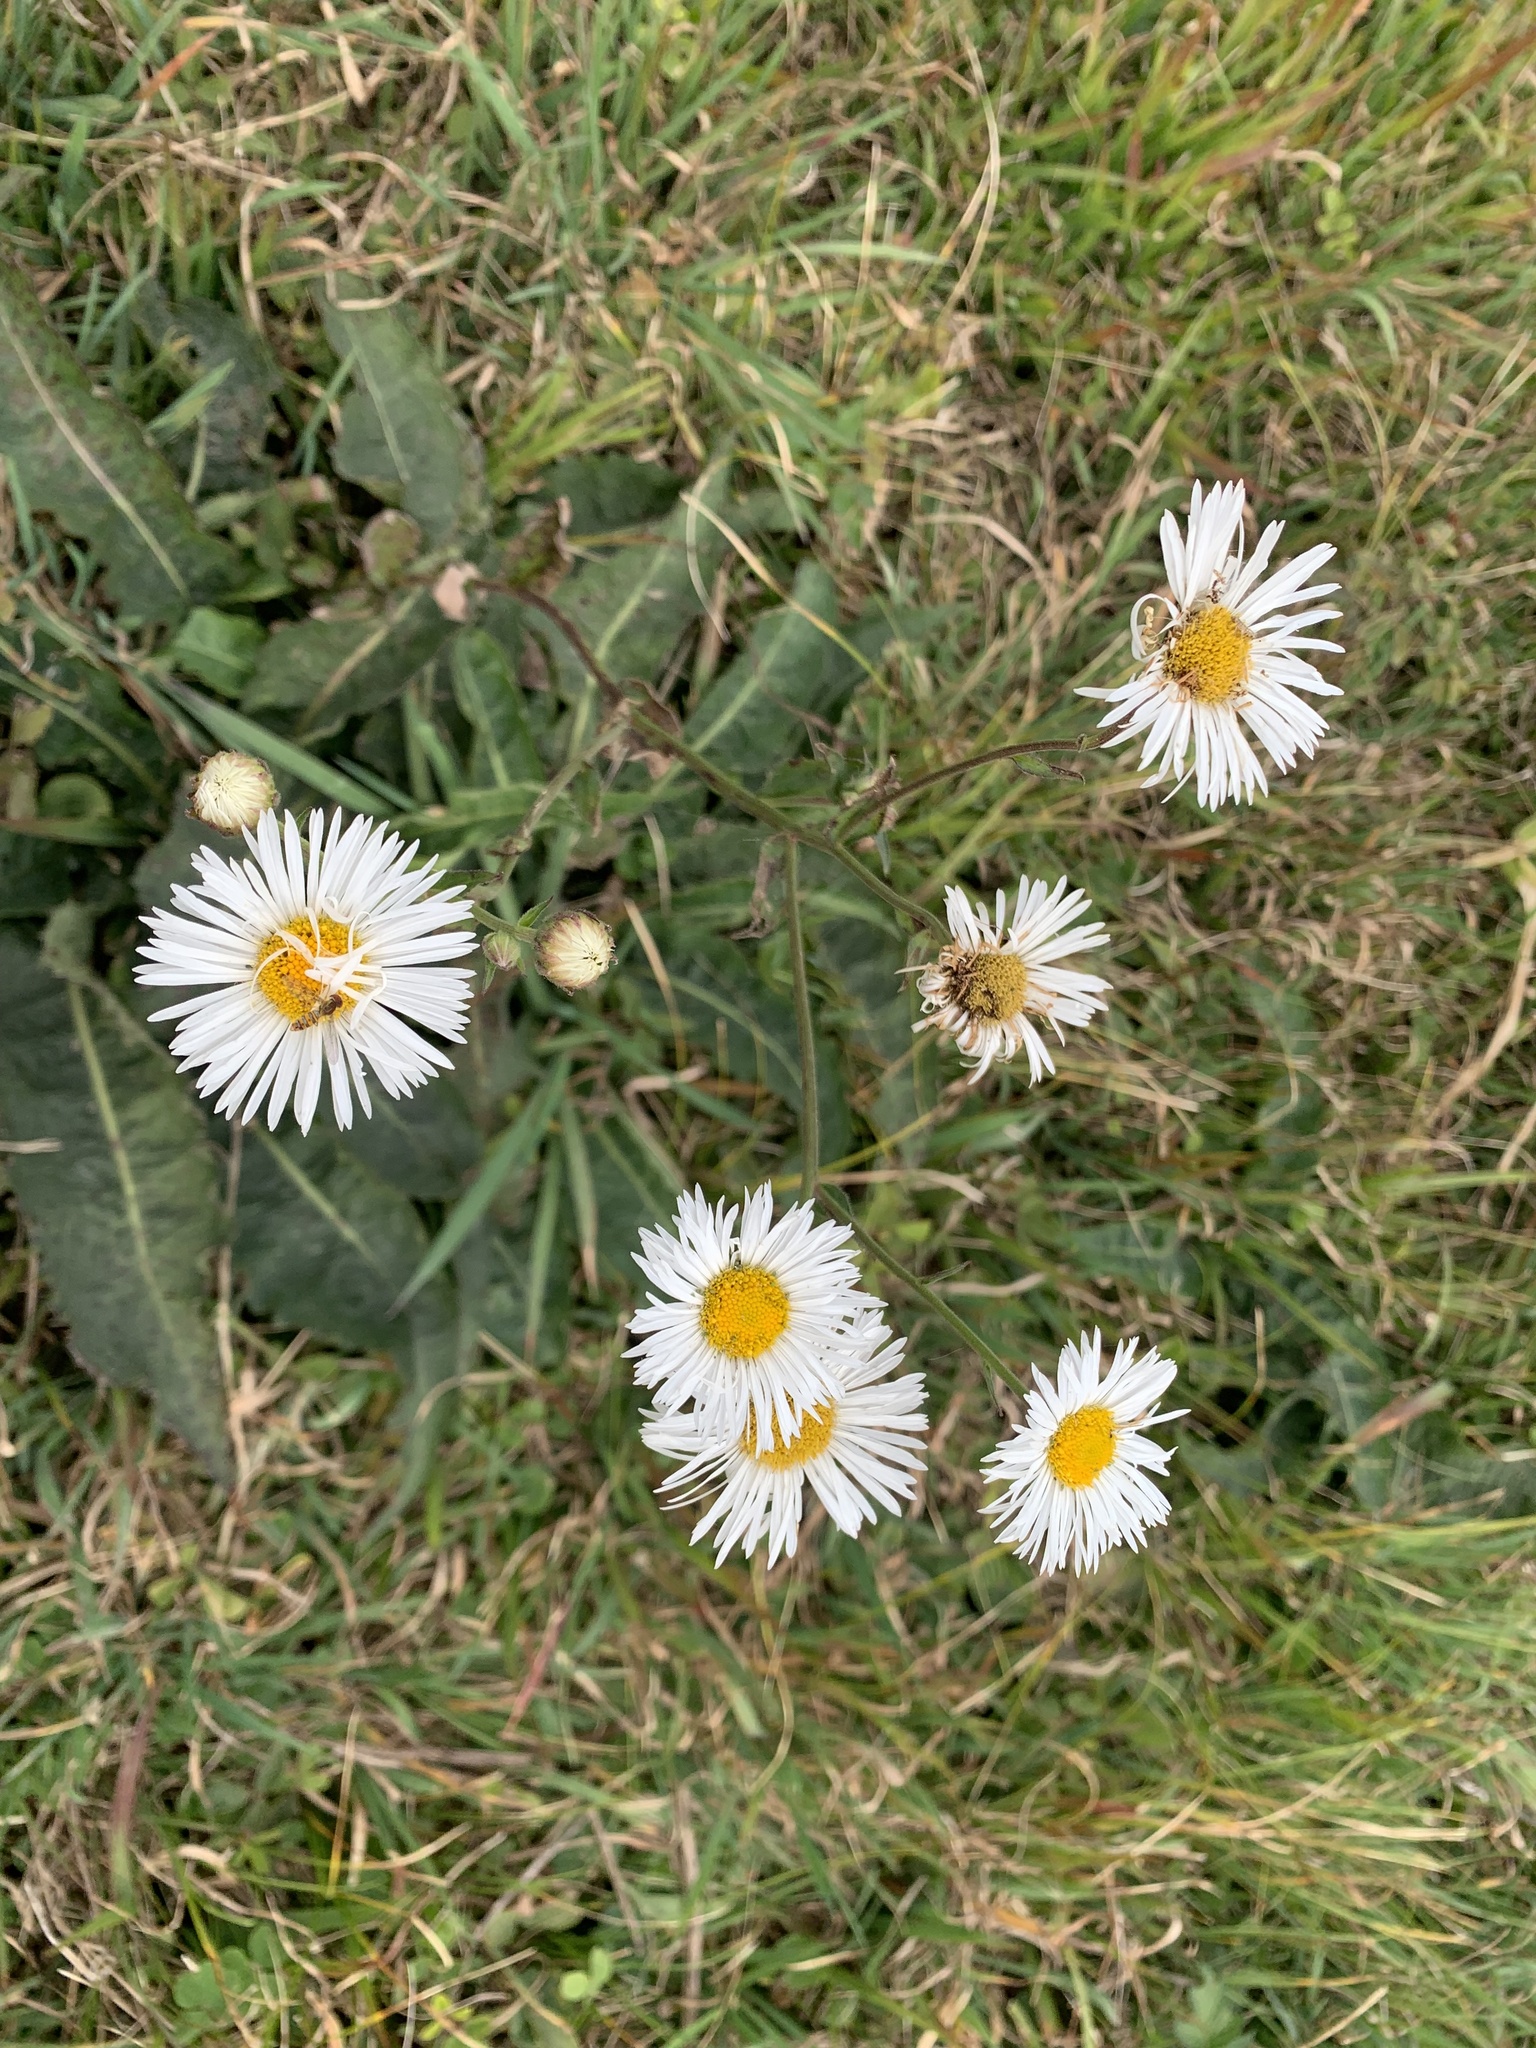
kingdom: Plantae
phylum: Tracheophyta
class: Magnoliopsida
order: Asterales
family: Asteraceae
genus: Leptostelma
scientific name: Leptostelma maxima
